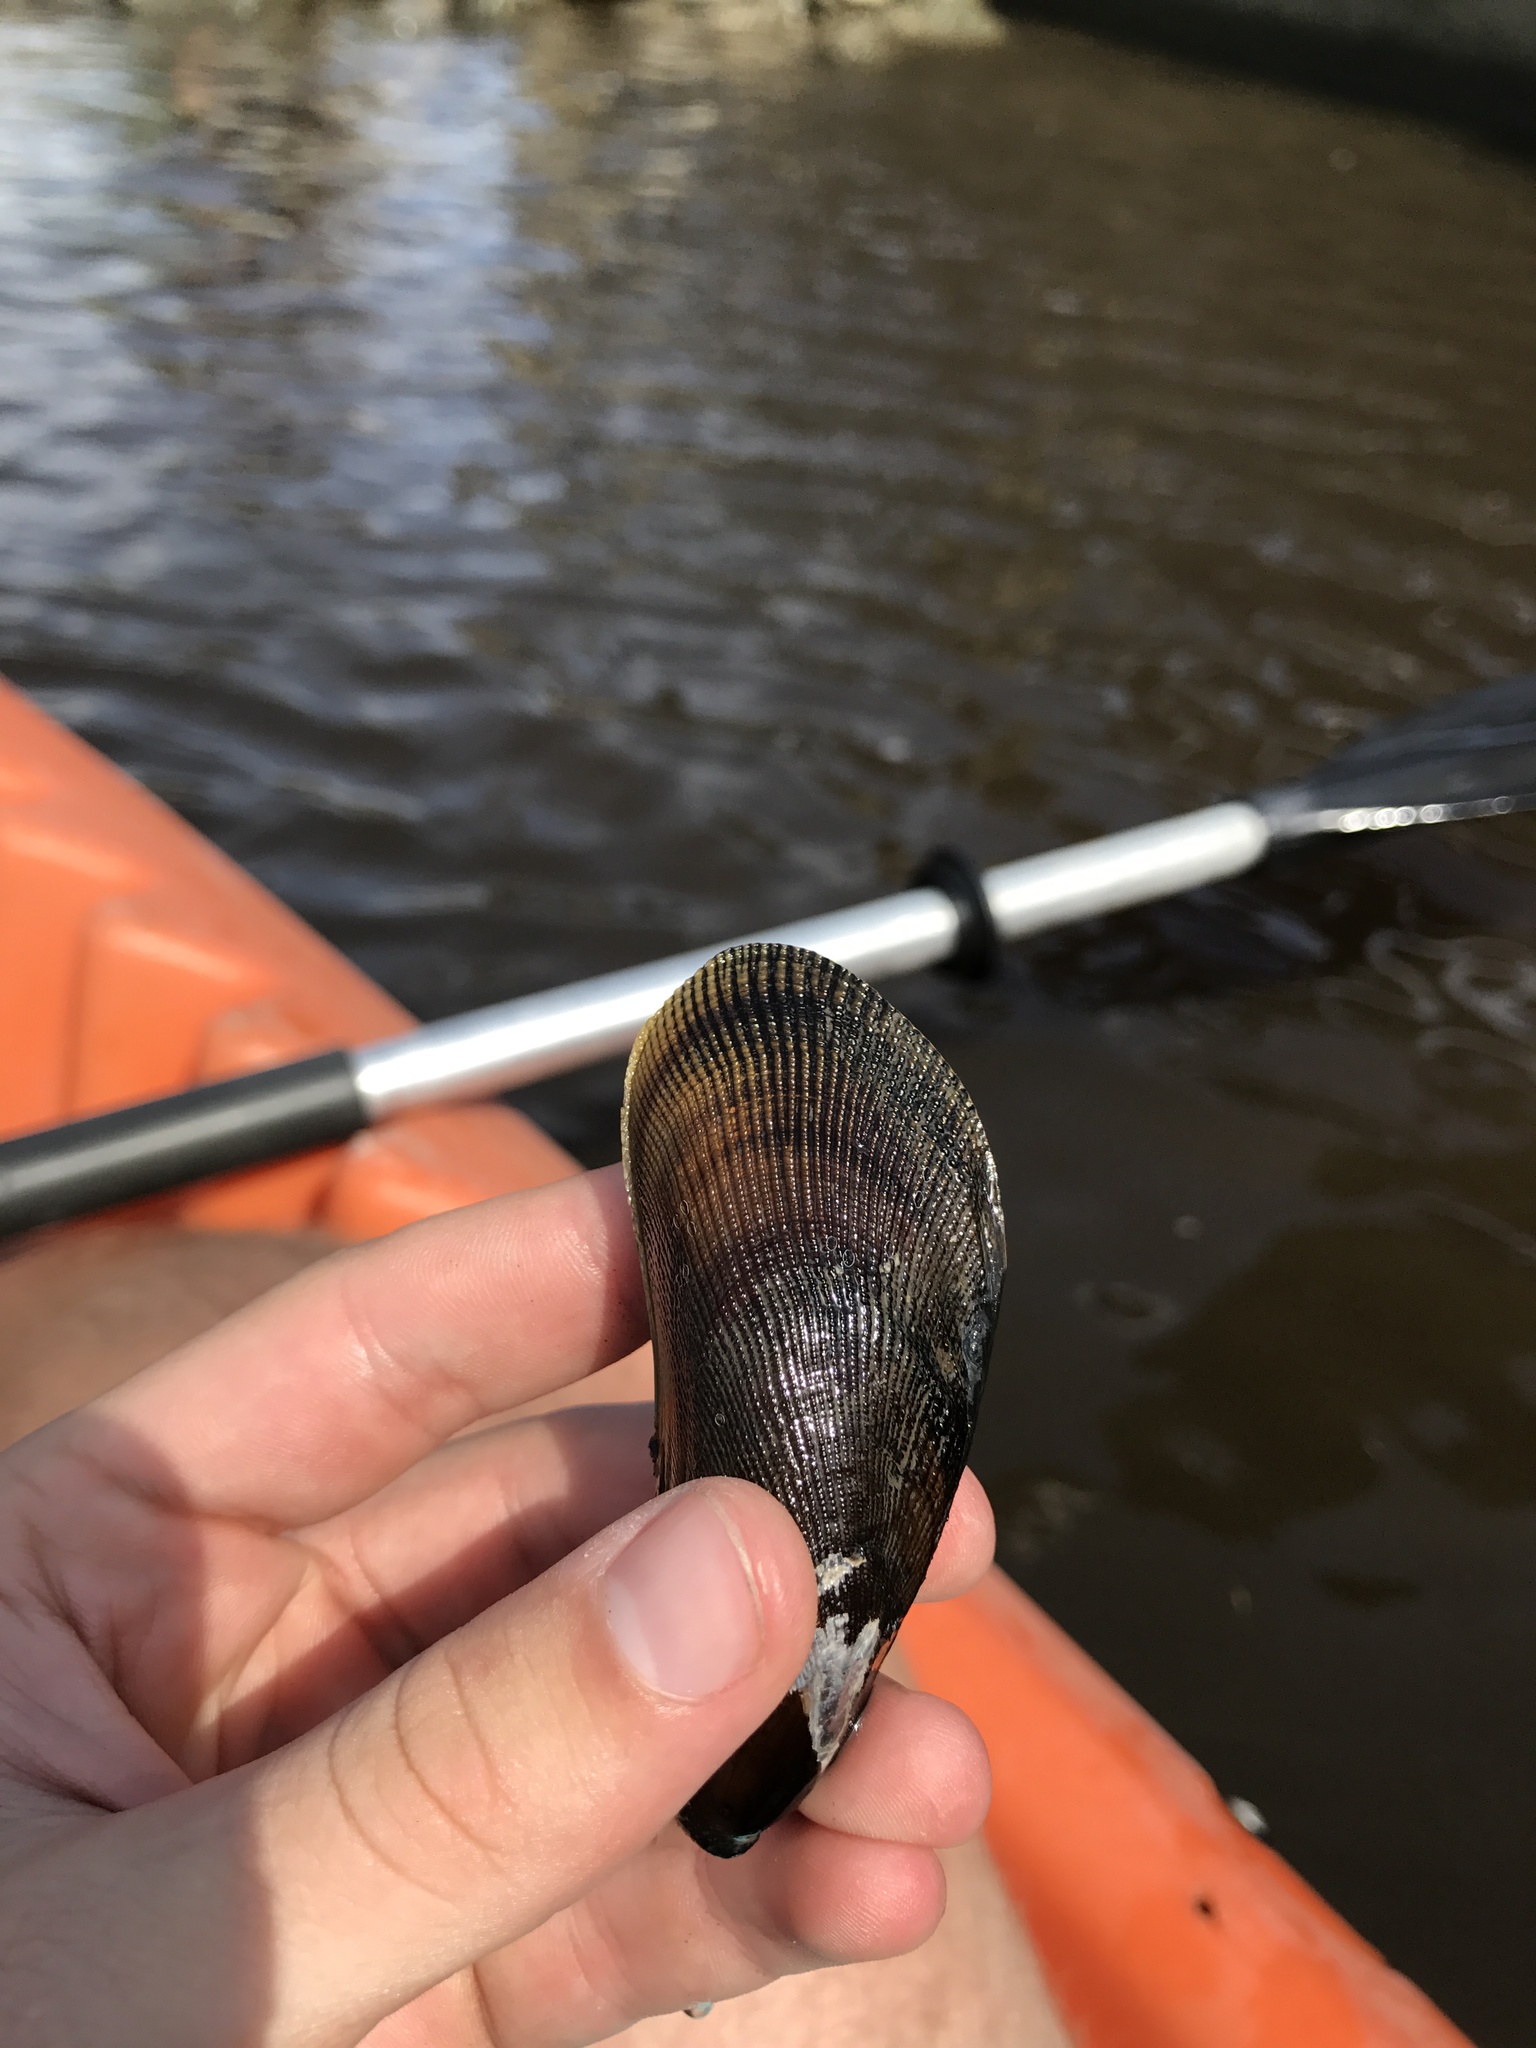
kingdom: Animalia
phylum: Mollusca
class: Bivalvia
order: Mytilida
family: Mytilidae
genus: Geukensia
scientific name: Geukensia granosissima
